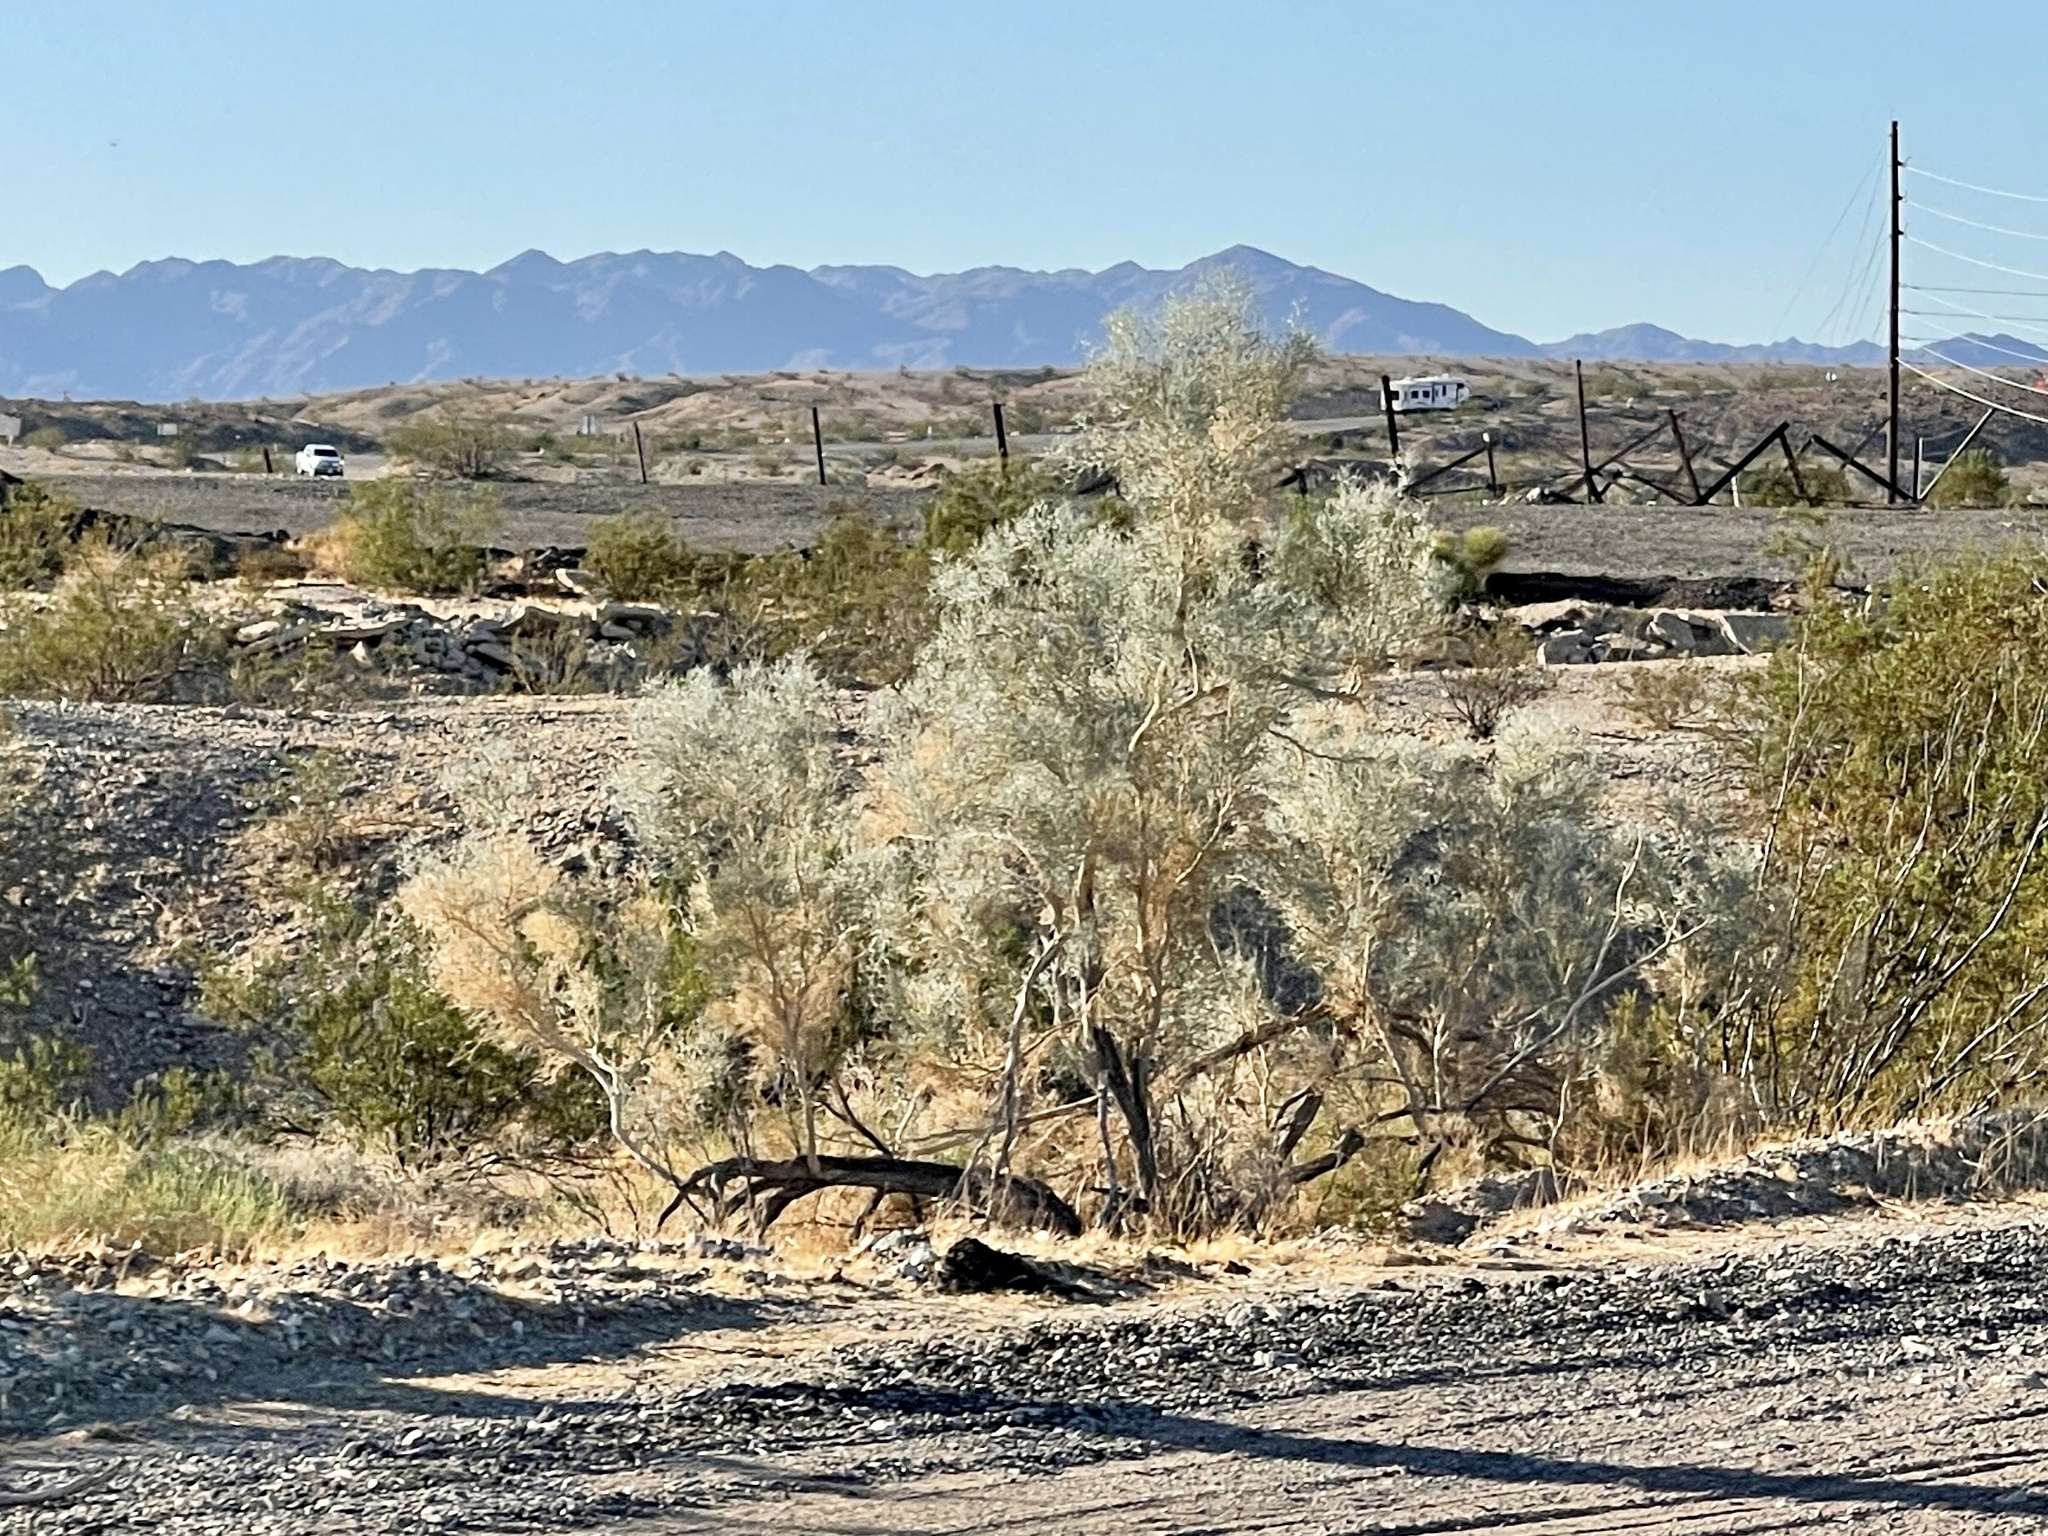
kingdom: Plantae
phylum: Tracheophyta
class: Magnoliopsida
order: Fabales
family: Fabaceae
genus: Psorothamnus
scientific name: Psorothamnus spinosus
